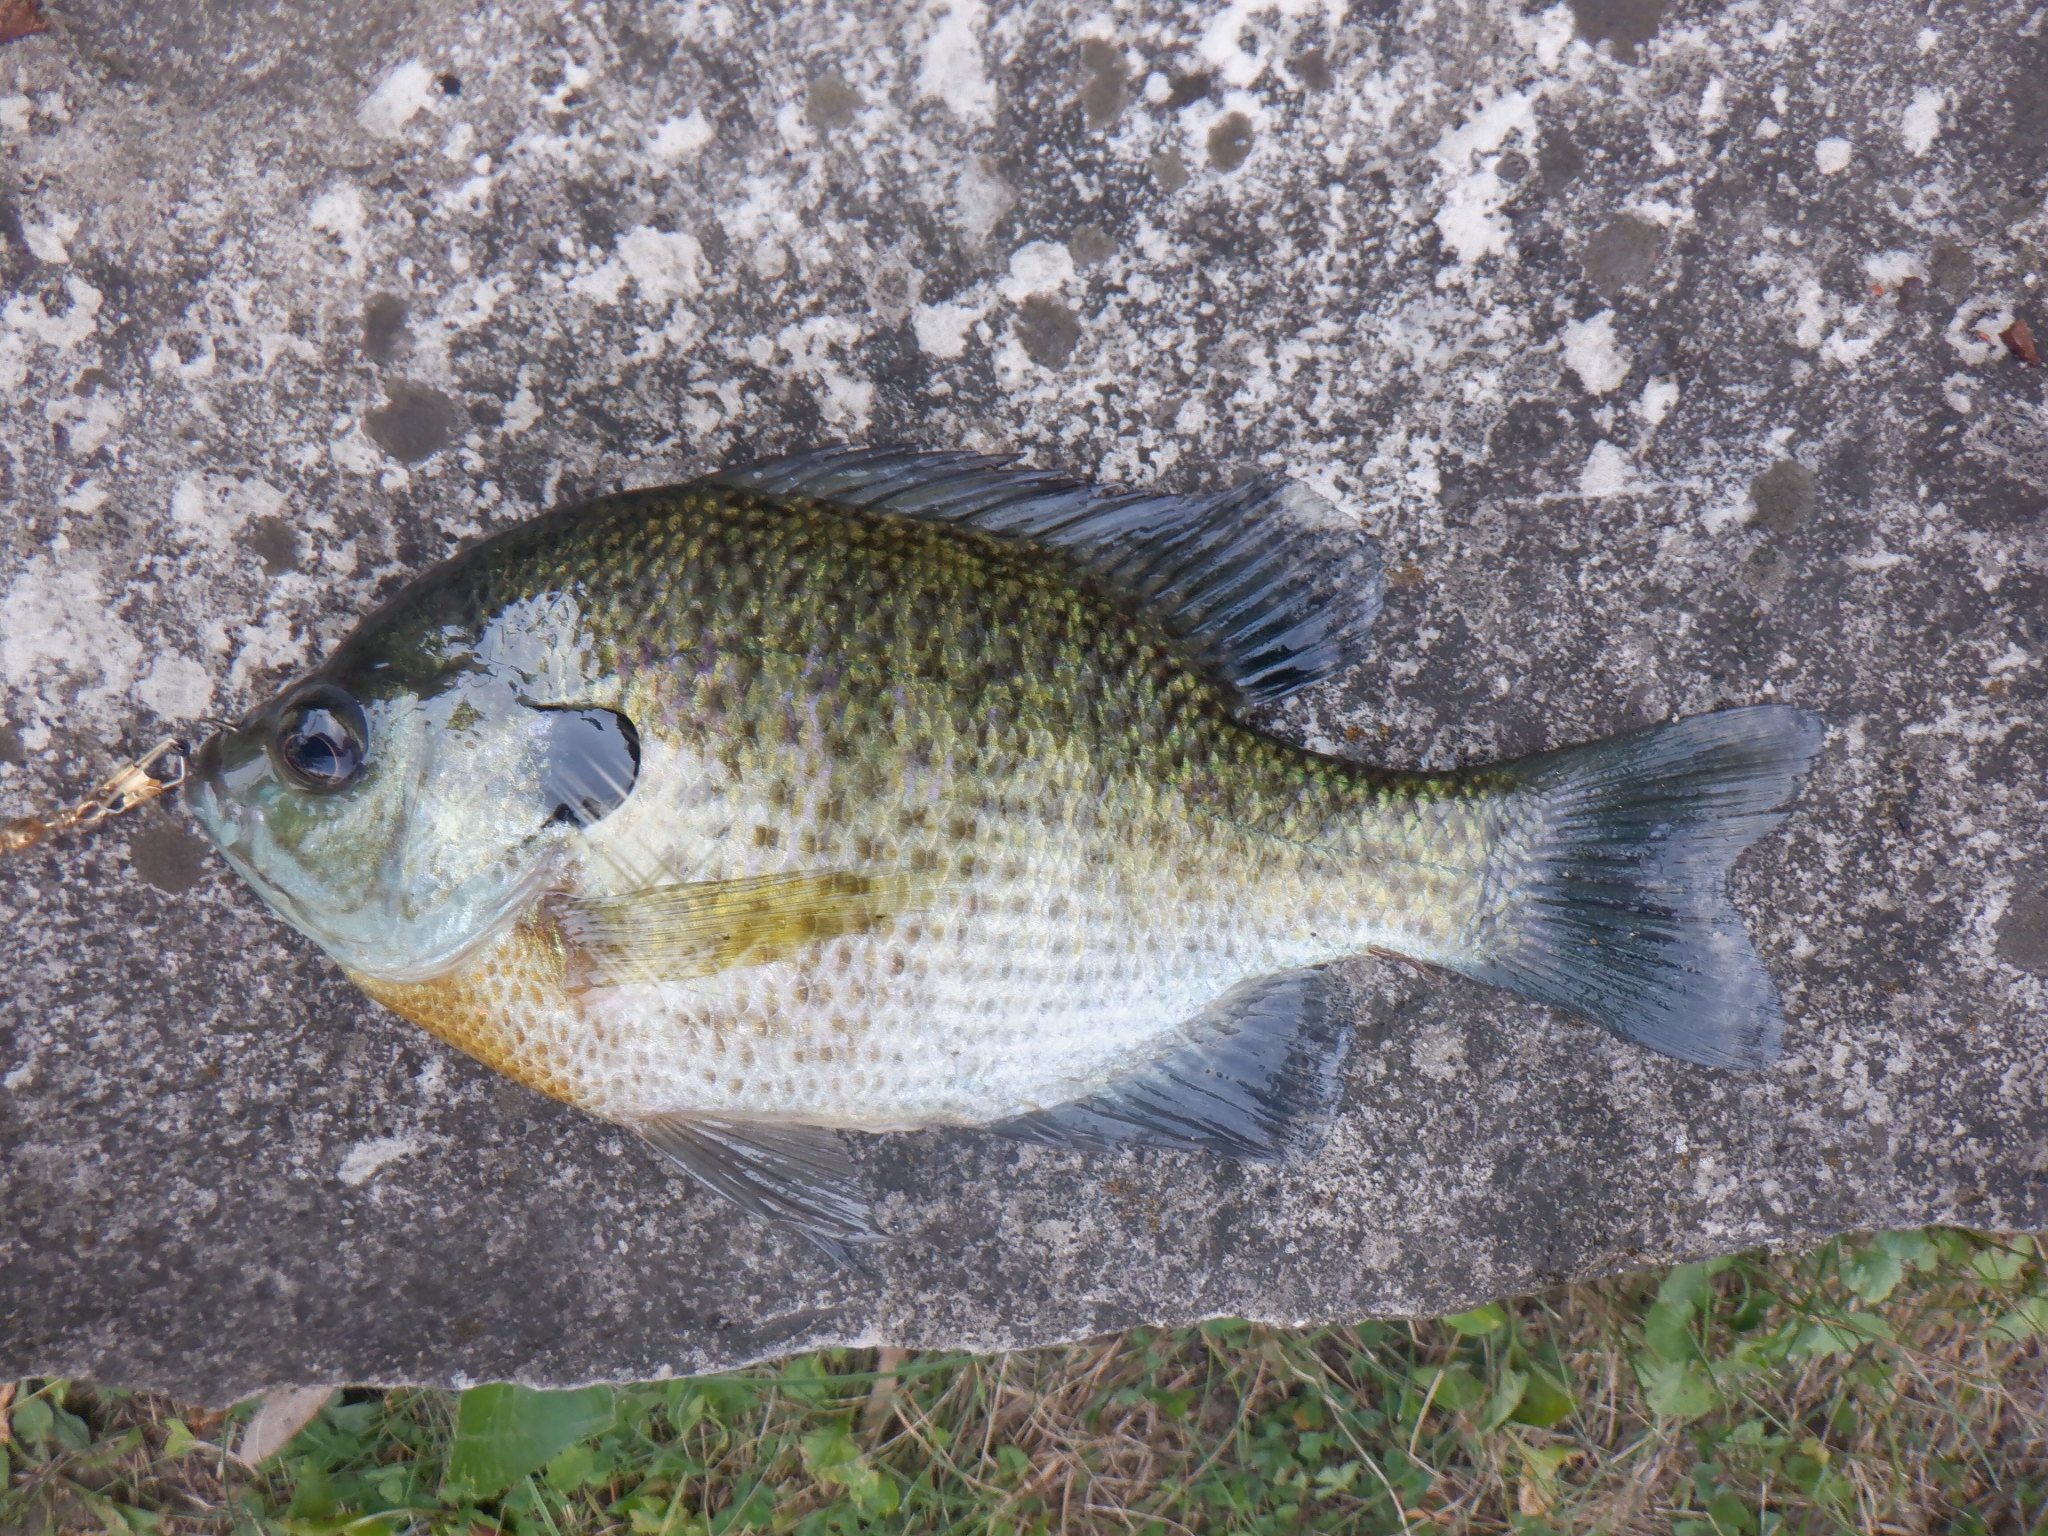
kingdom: Animalia
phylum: Chordata
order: Perciformes
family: Centrarchidae
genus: Lepomis
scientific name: Lepomis macrochirus
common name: Bluegill
